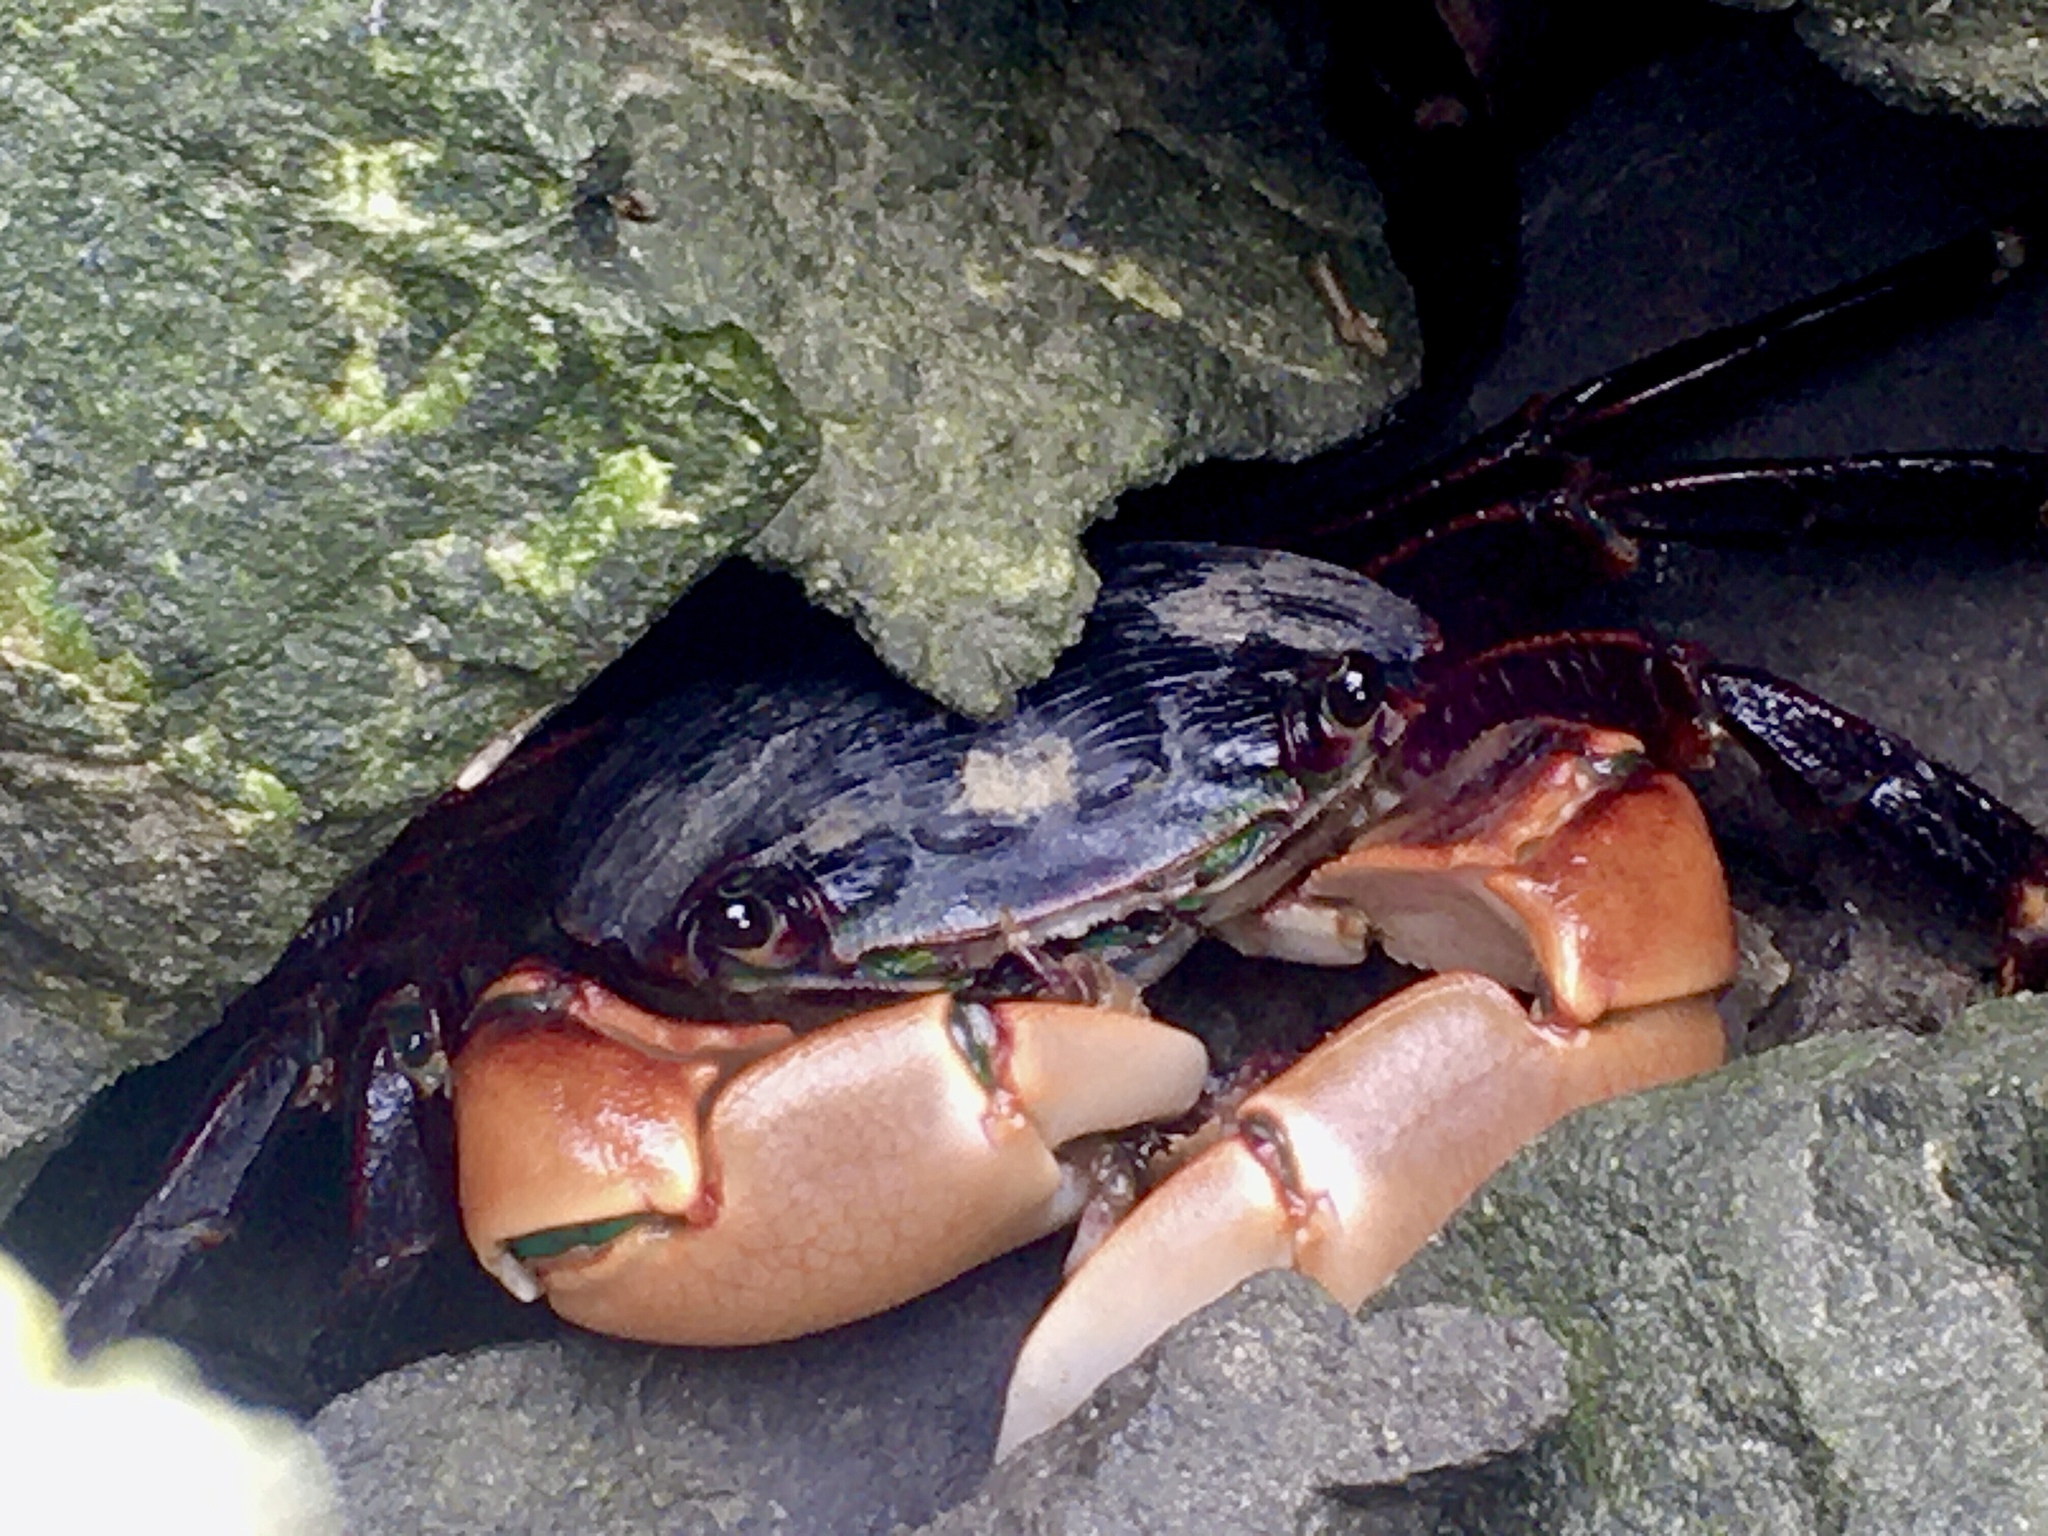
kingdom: Animalia
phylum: Arthropoda
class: Malacostraca
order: Decapoda
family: Grapsidae
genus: Pachygrapsus
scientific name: Pachygrapsus crassipes
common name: Striped shore crab
